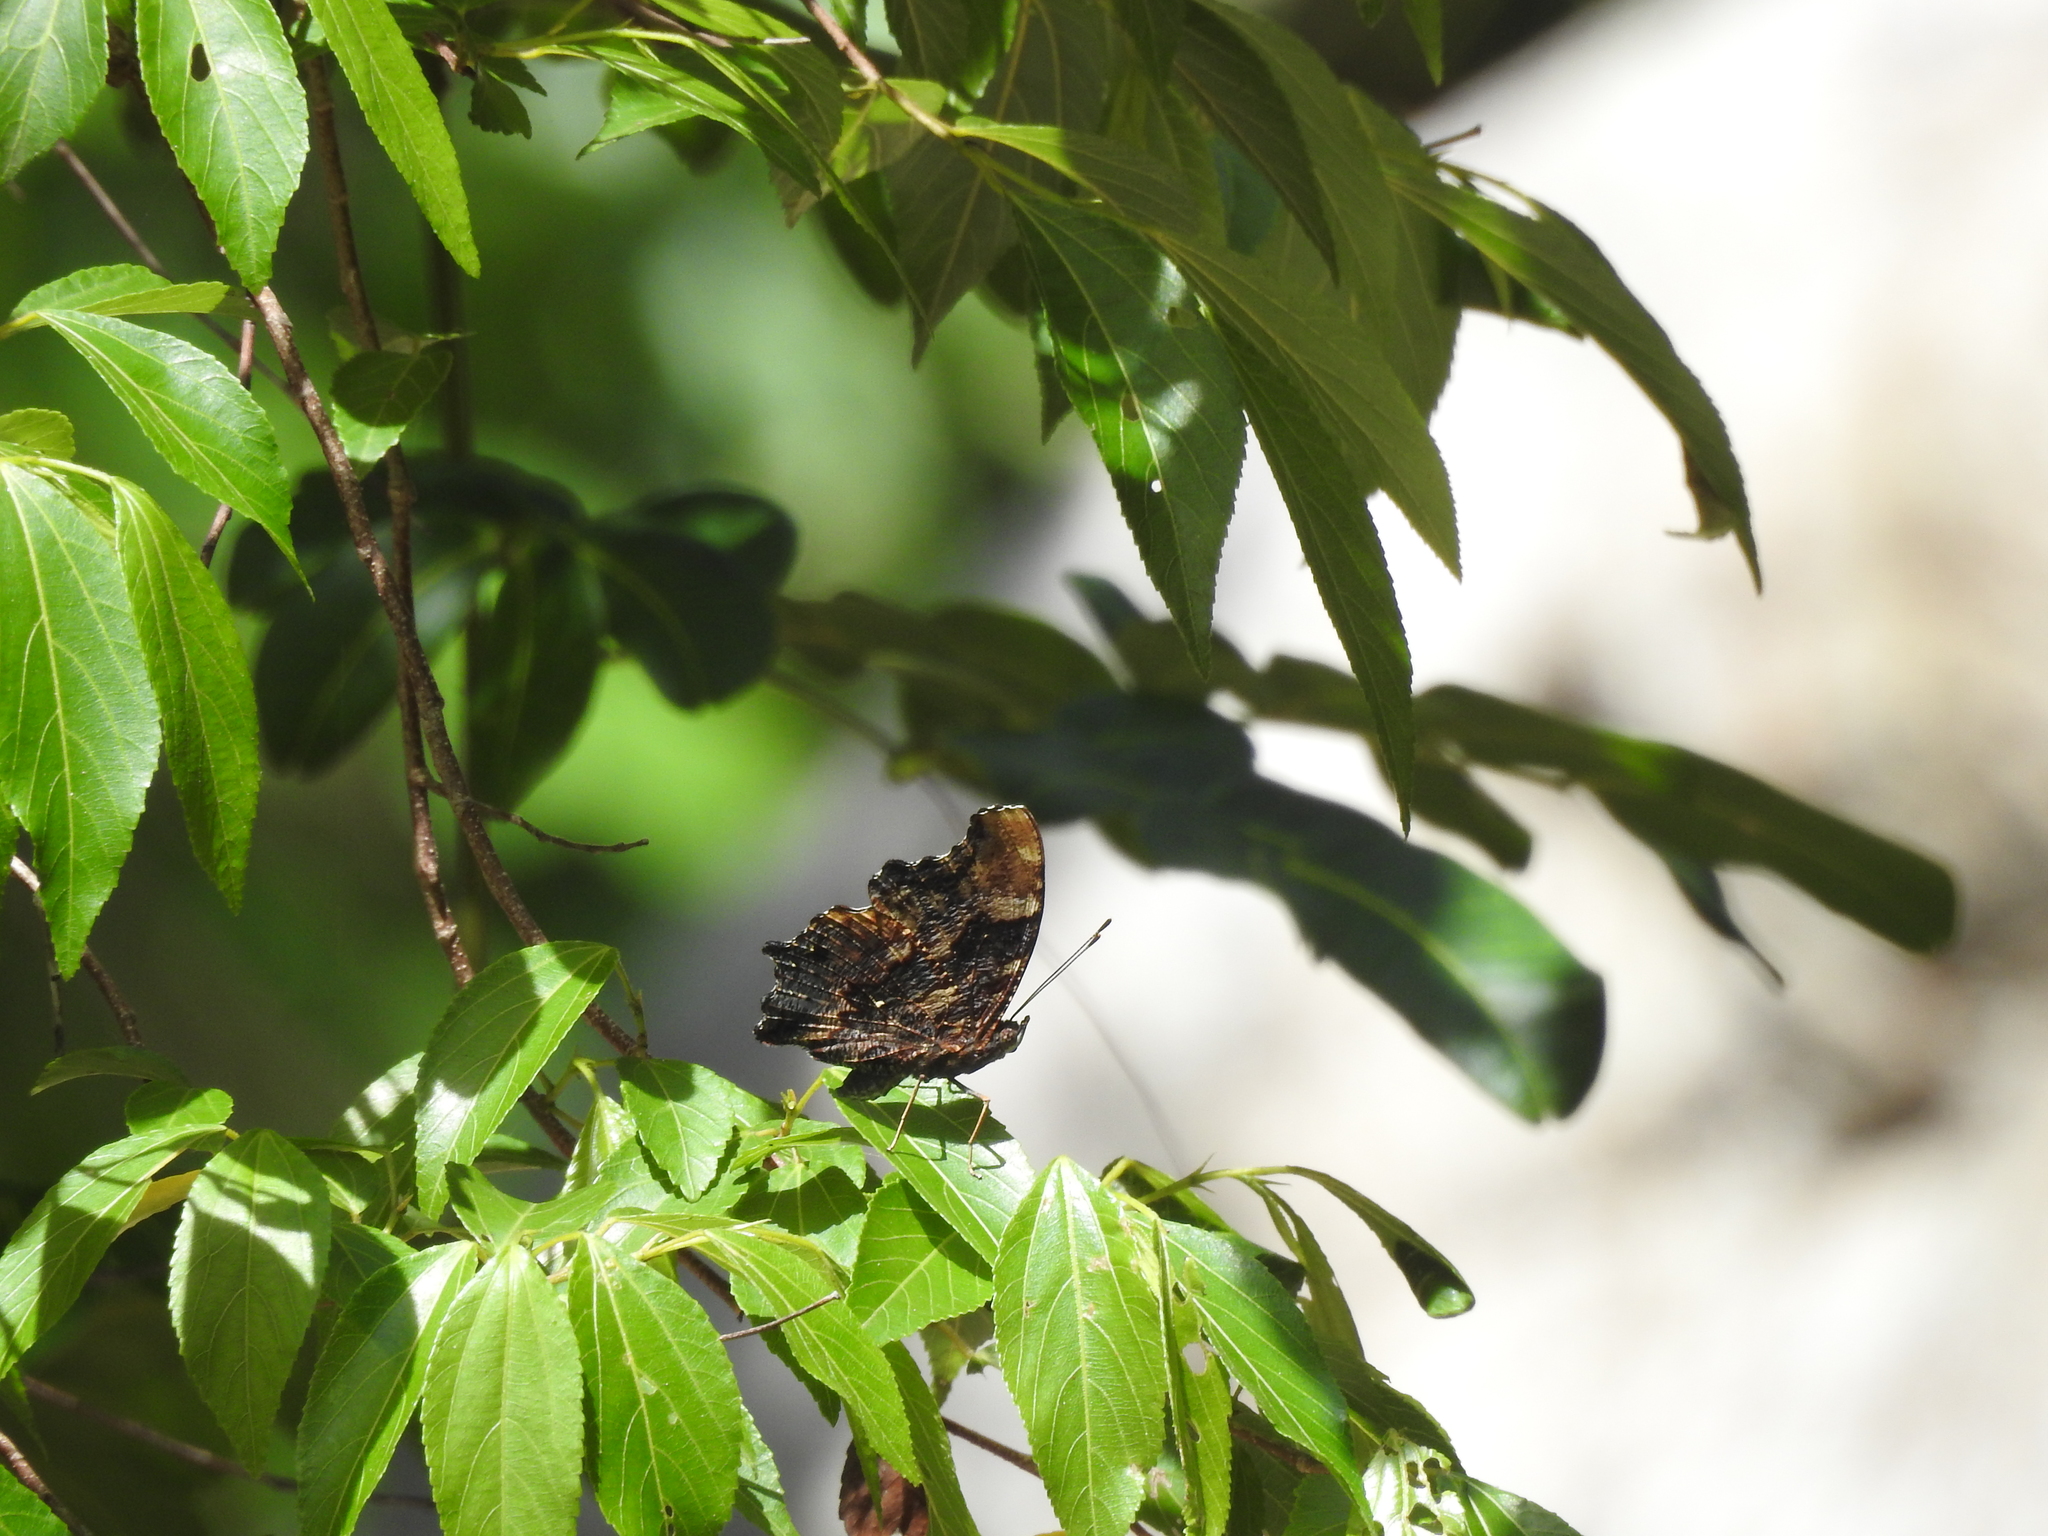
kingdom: Animalia
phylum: Arthropoda
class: Insecta
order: Lepidoptera
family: Nymphalidae
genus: Vanessa
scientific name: Vanessa Kaniska canace
